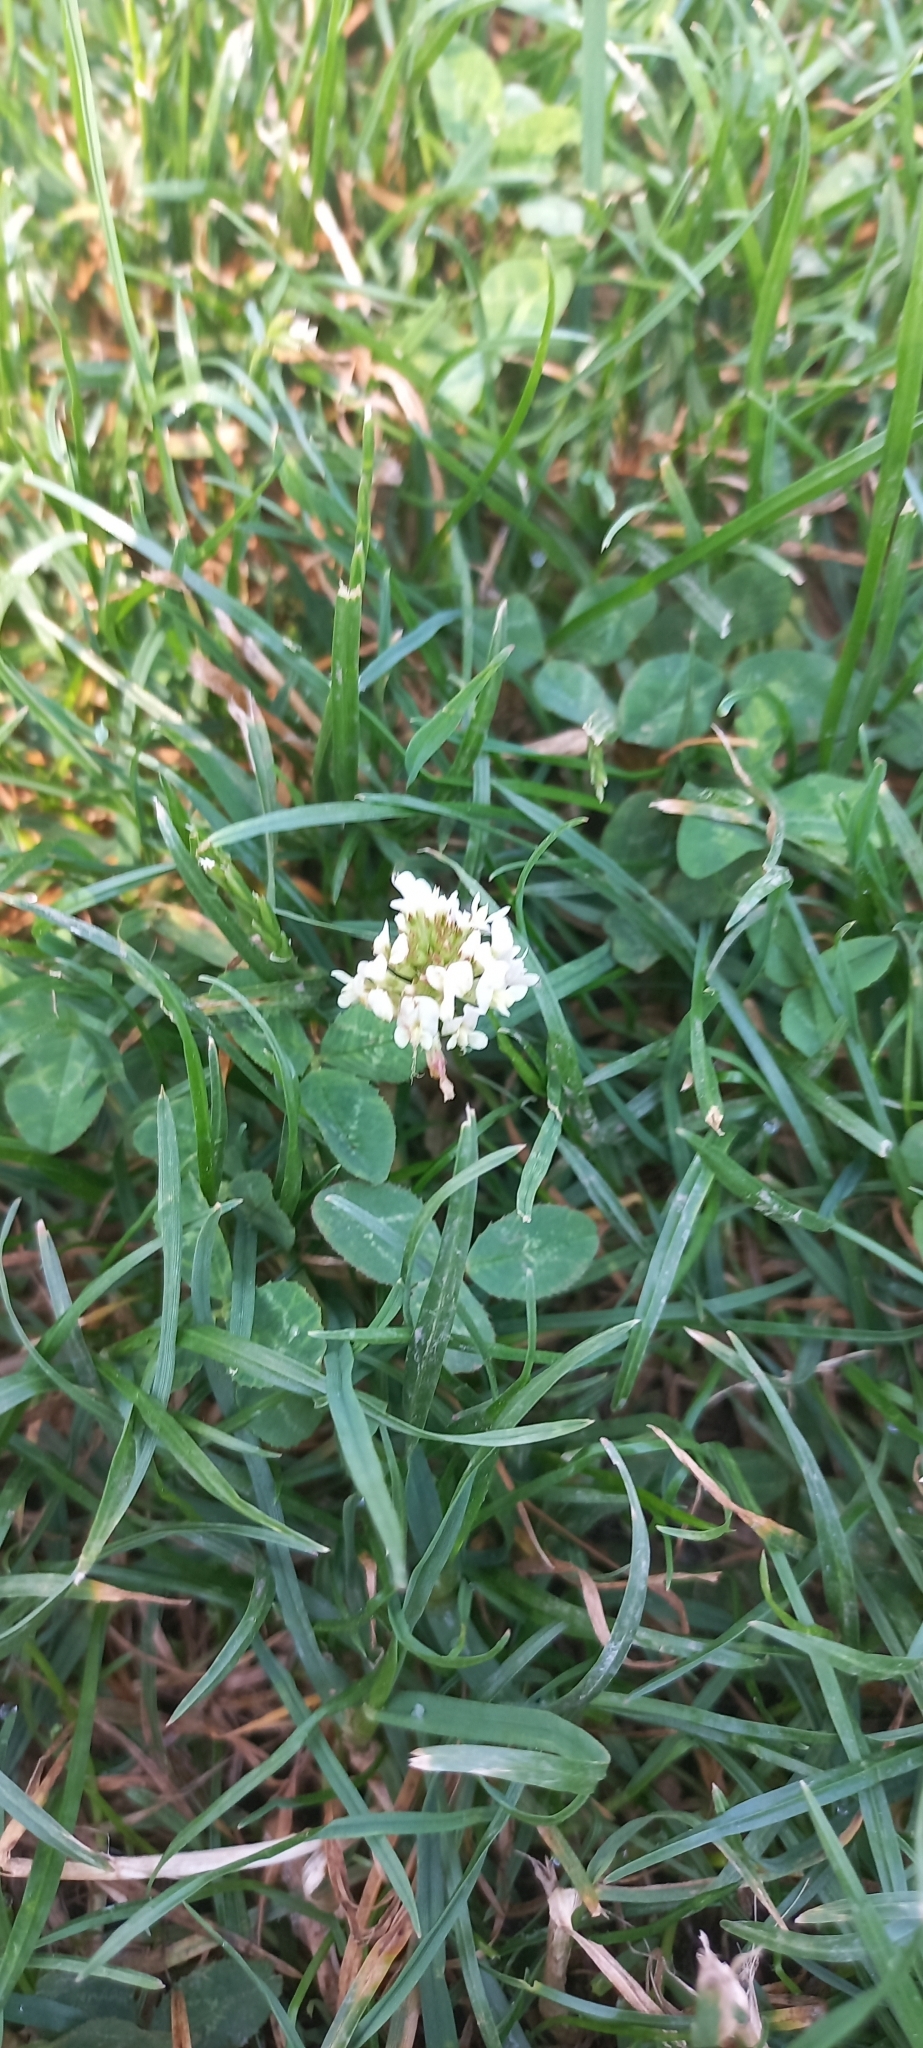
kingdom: Plantae
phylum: Tracheophyta
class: Magnoliopsida
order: Fabales
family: Fabaceae
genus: Trifolium
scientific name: Trifolium repens
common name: White clover
